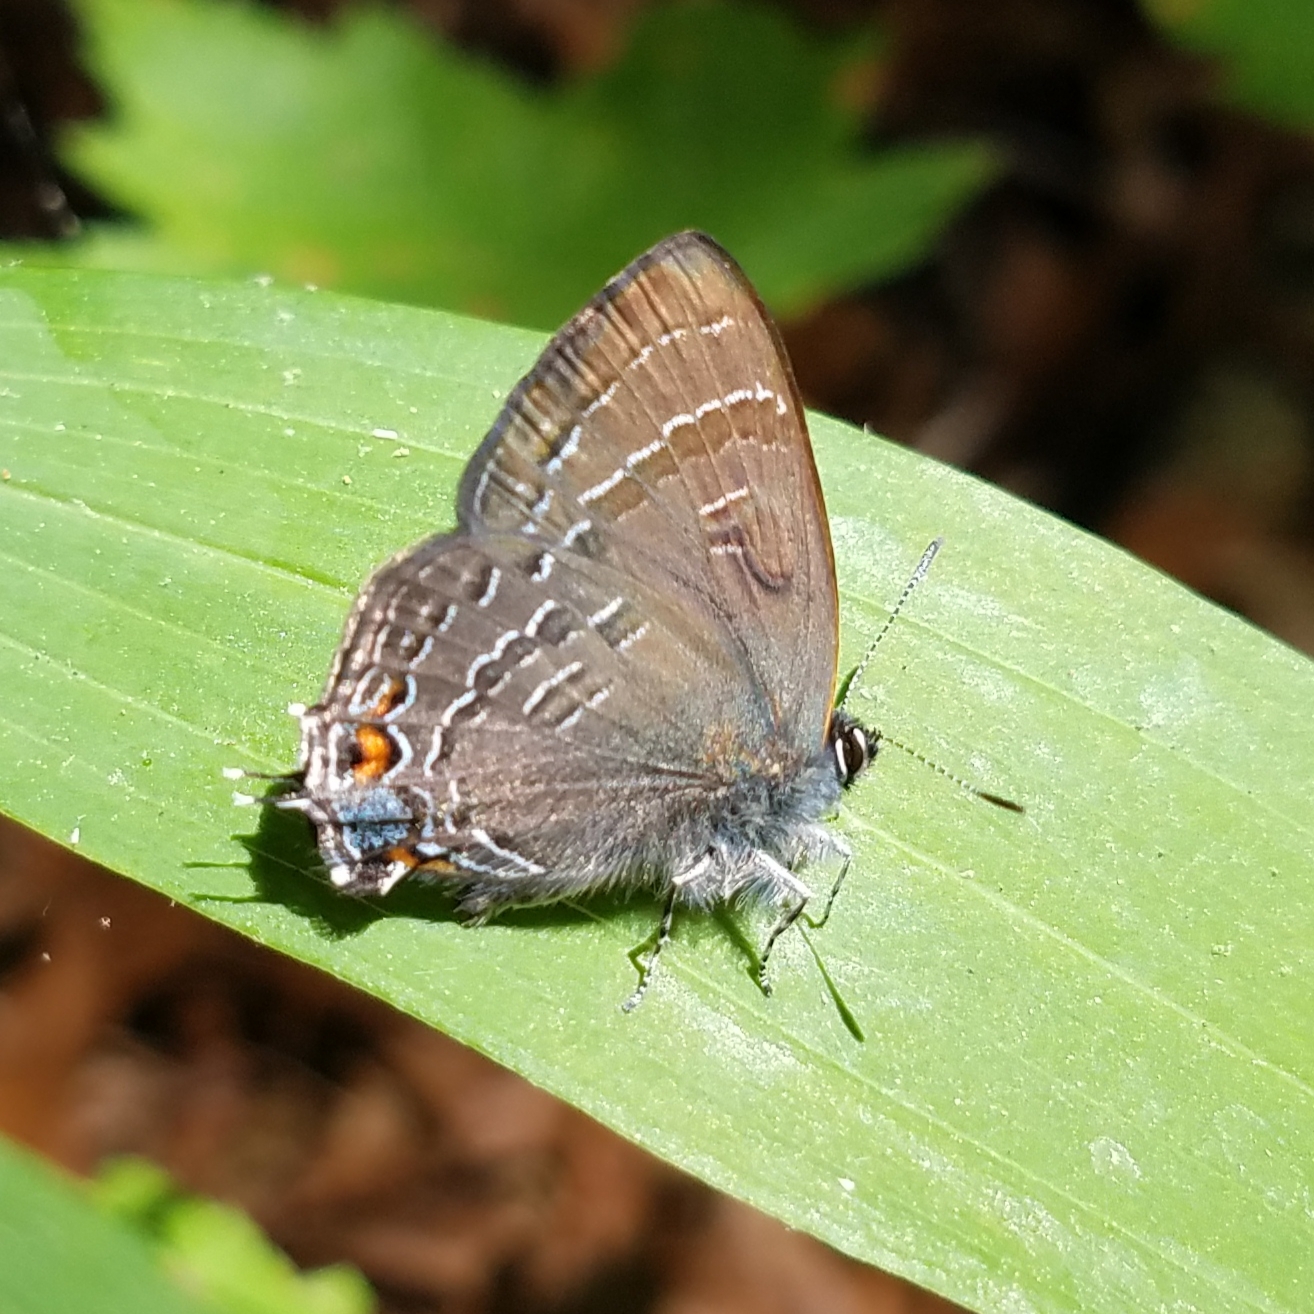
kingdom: Animalia
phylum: Arthropoda
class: Insecta
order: Lepidoptera
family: Lycaenidae
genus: Satyrium
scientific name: Satyrium calanus
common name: Banded hairstreak
